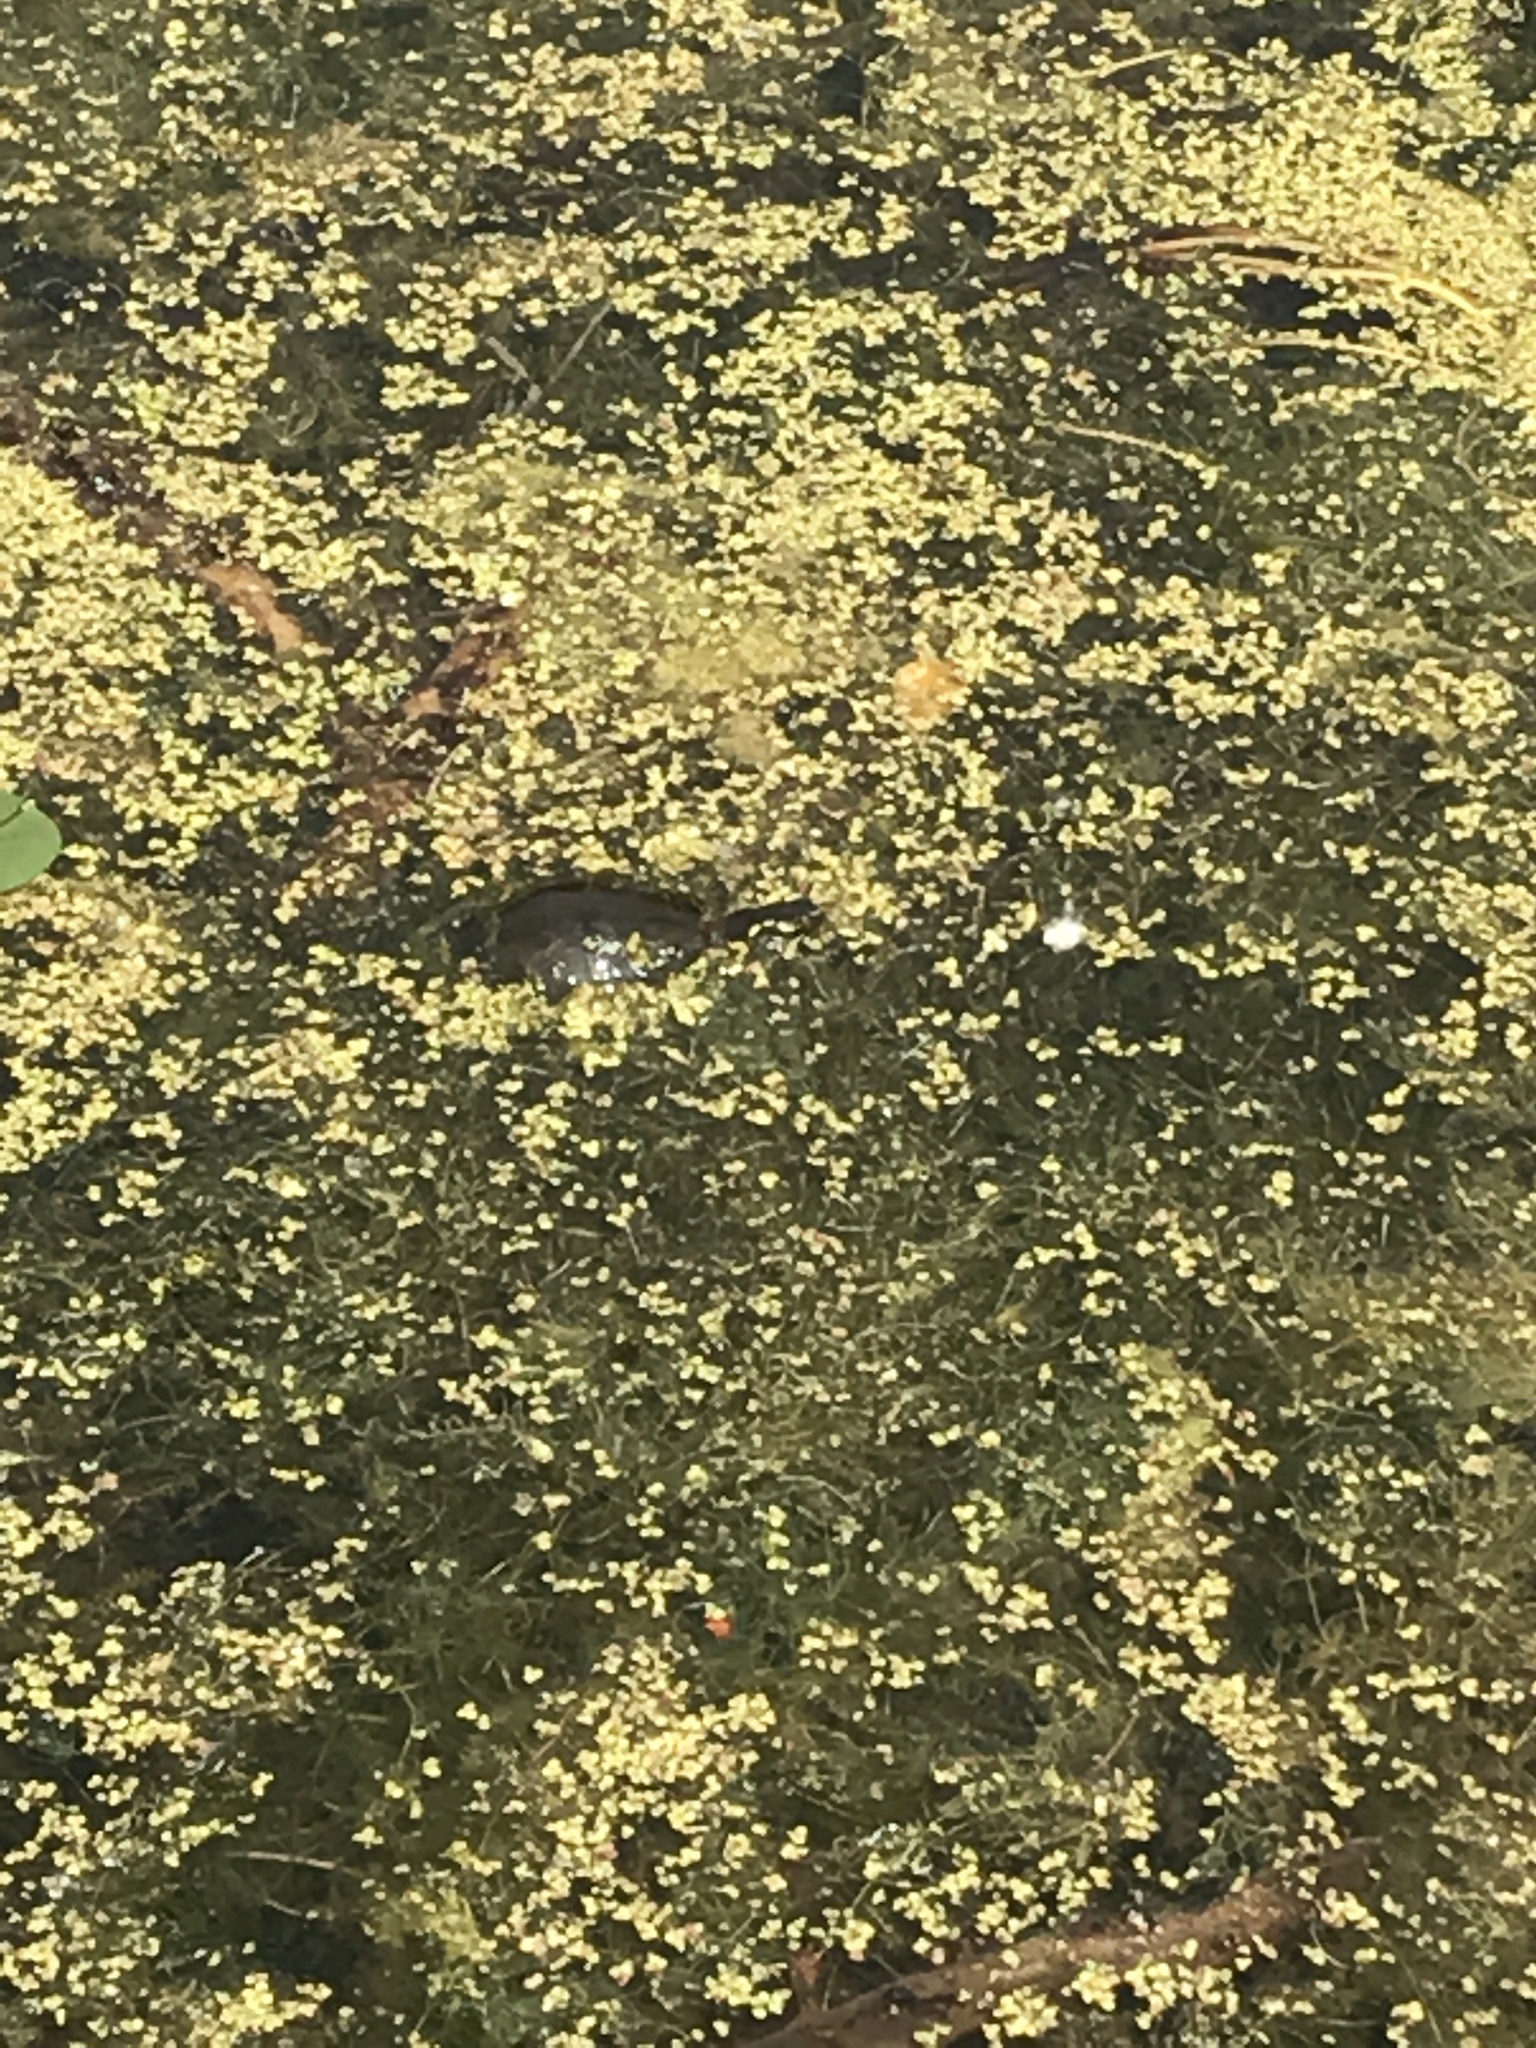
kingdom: Animalia
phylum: Chordata
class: Testudines
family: Emydidae
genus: Chrysemys
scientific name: Chrysemys picta
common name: Painted turtle
